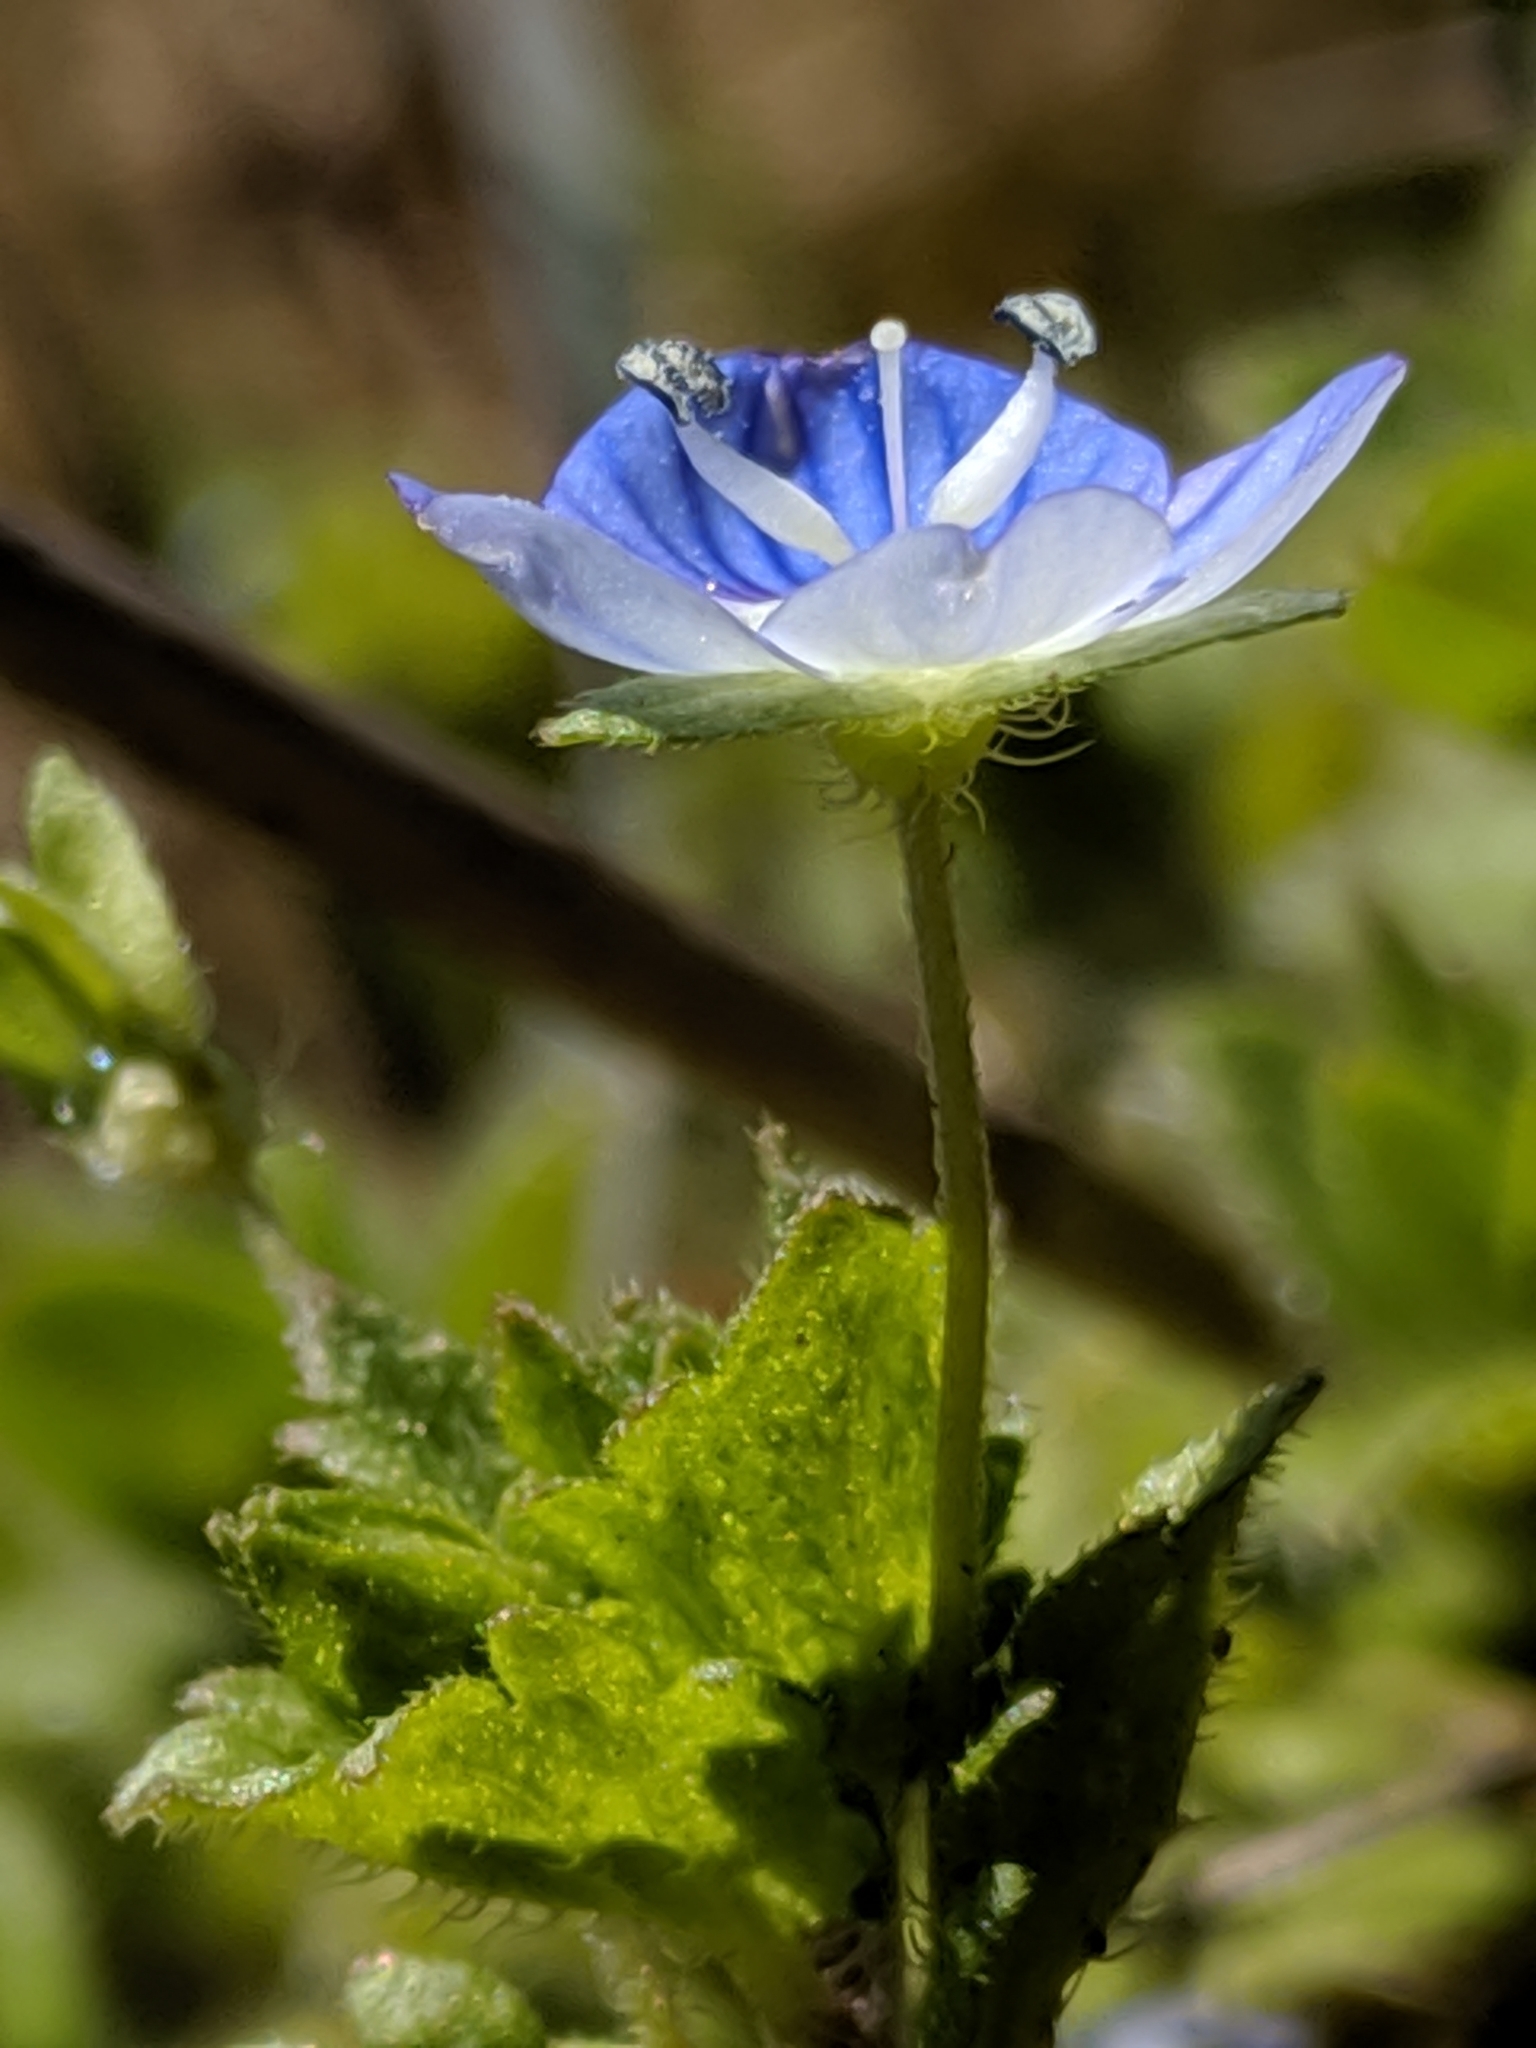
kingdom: Plantae
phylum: Tracheophyta
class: Magnoliopsida
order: Lamiales
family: Plantaginaceae
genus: Veronica
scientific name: Veronica persica
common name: Common field-speedwell
